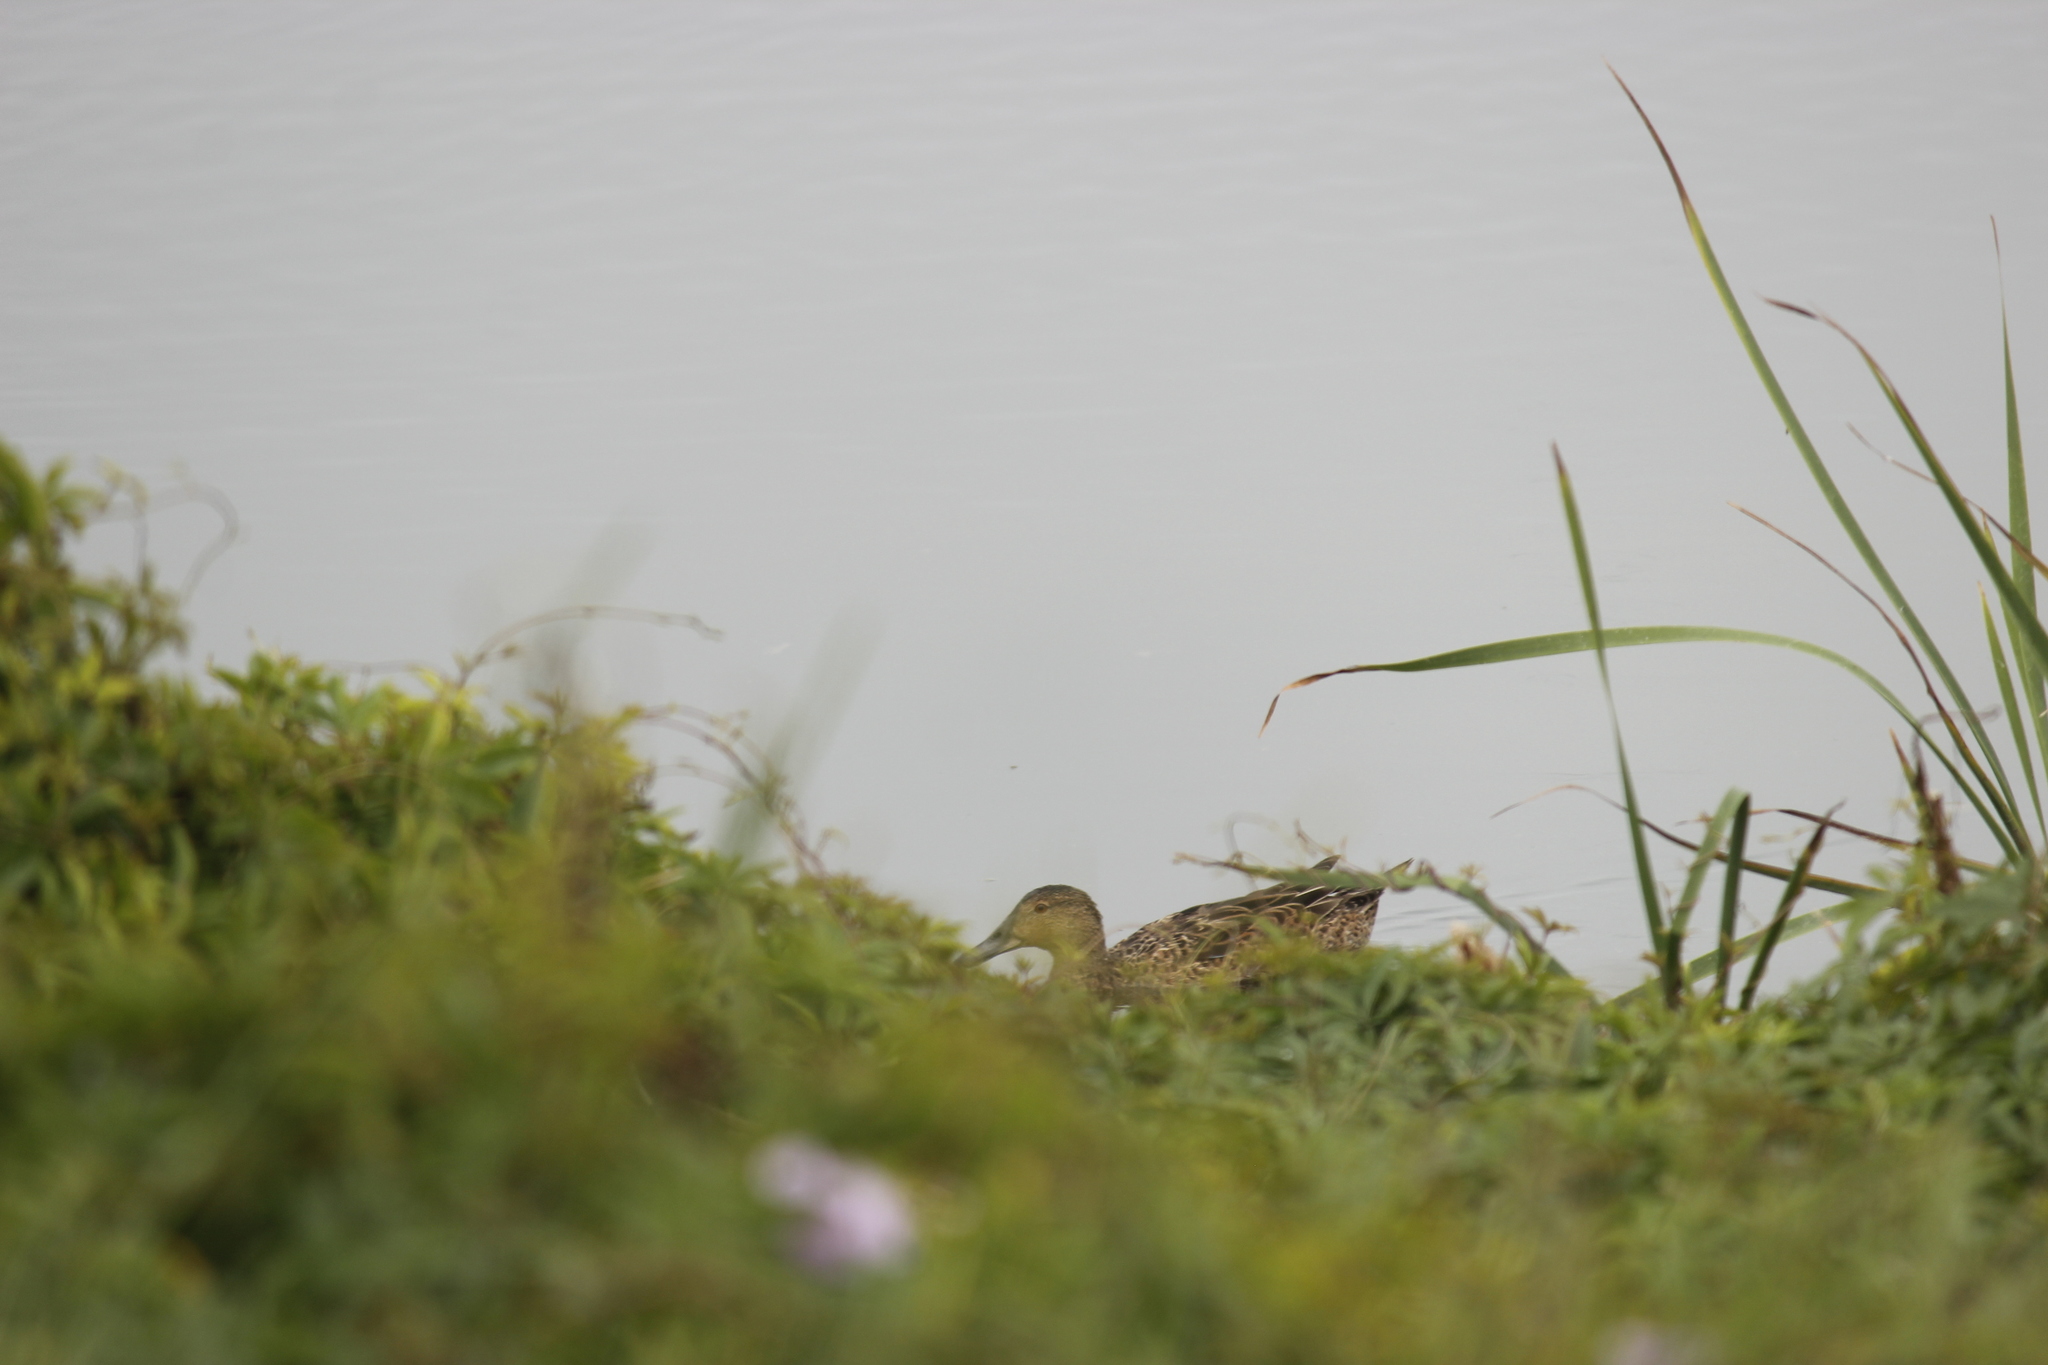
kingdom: Animalia
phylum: Chordata
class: Aves
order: Anseriformes
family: Anatidae
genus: Spatula
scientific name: Spatula cyanoptera
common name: Cinnamon teal
